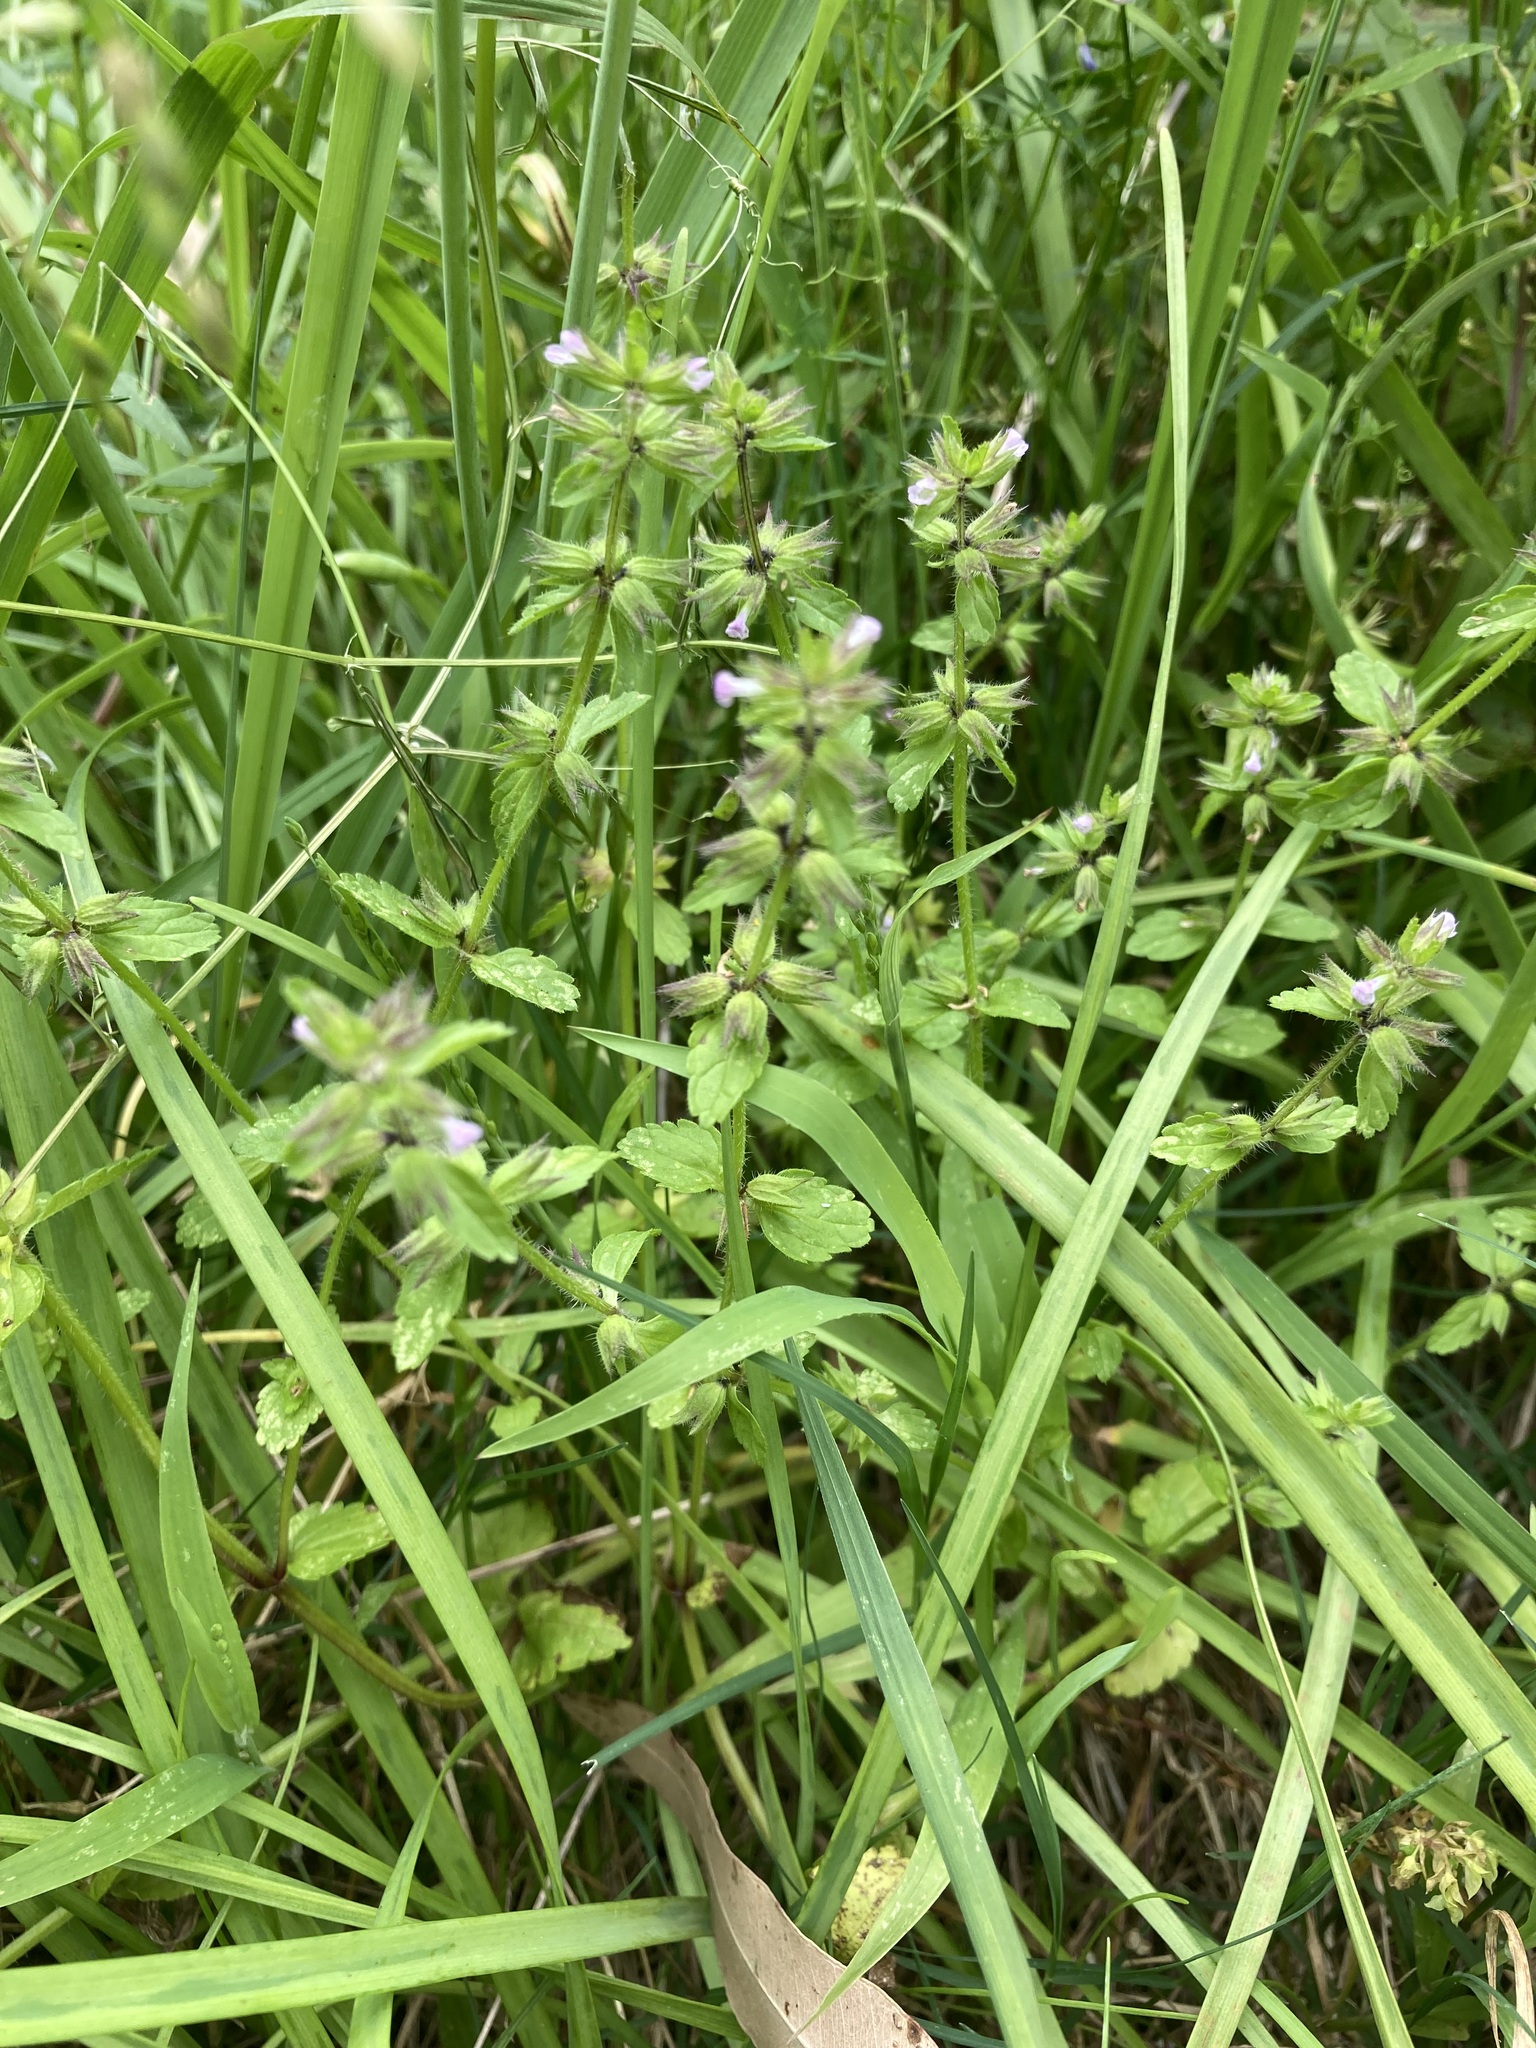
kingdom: Plantae
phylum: Tracheophyta
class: Magnoliopsida
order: Lamiales
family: Lamiaceae
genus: Stachys
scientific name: Stachys arvensis
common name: Field woundwort
